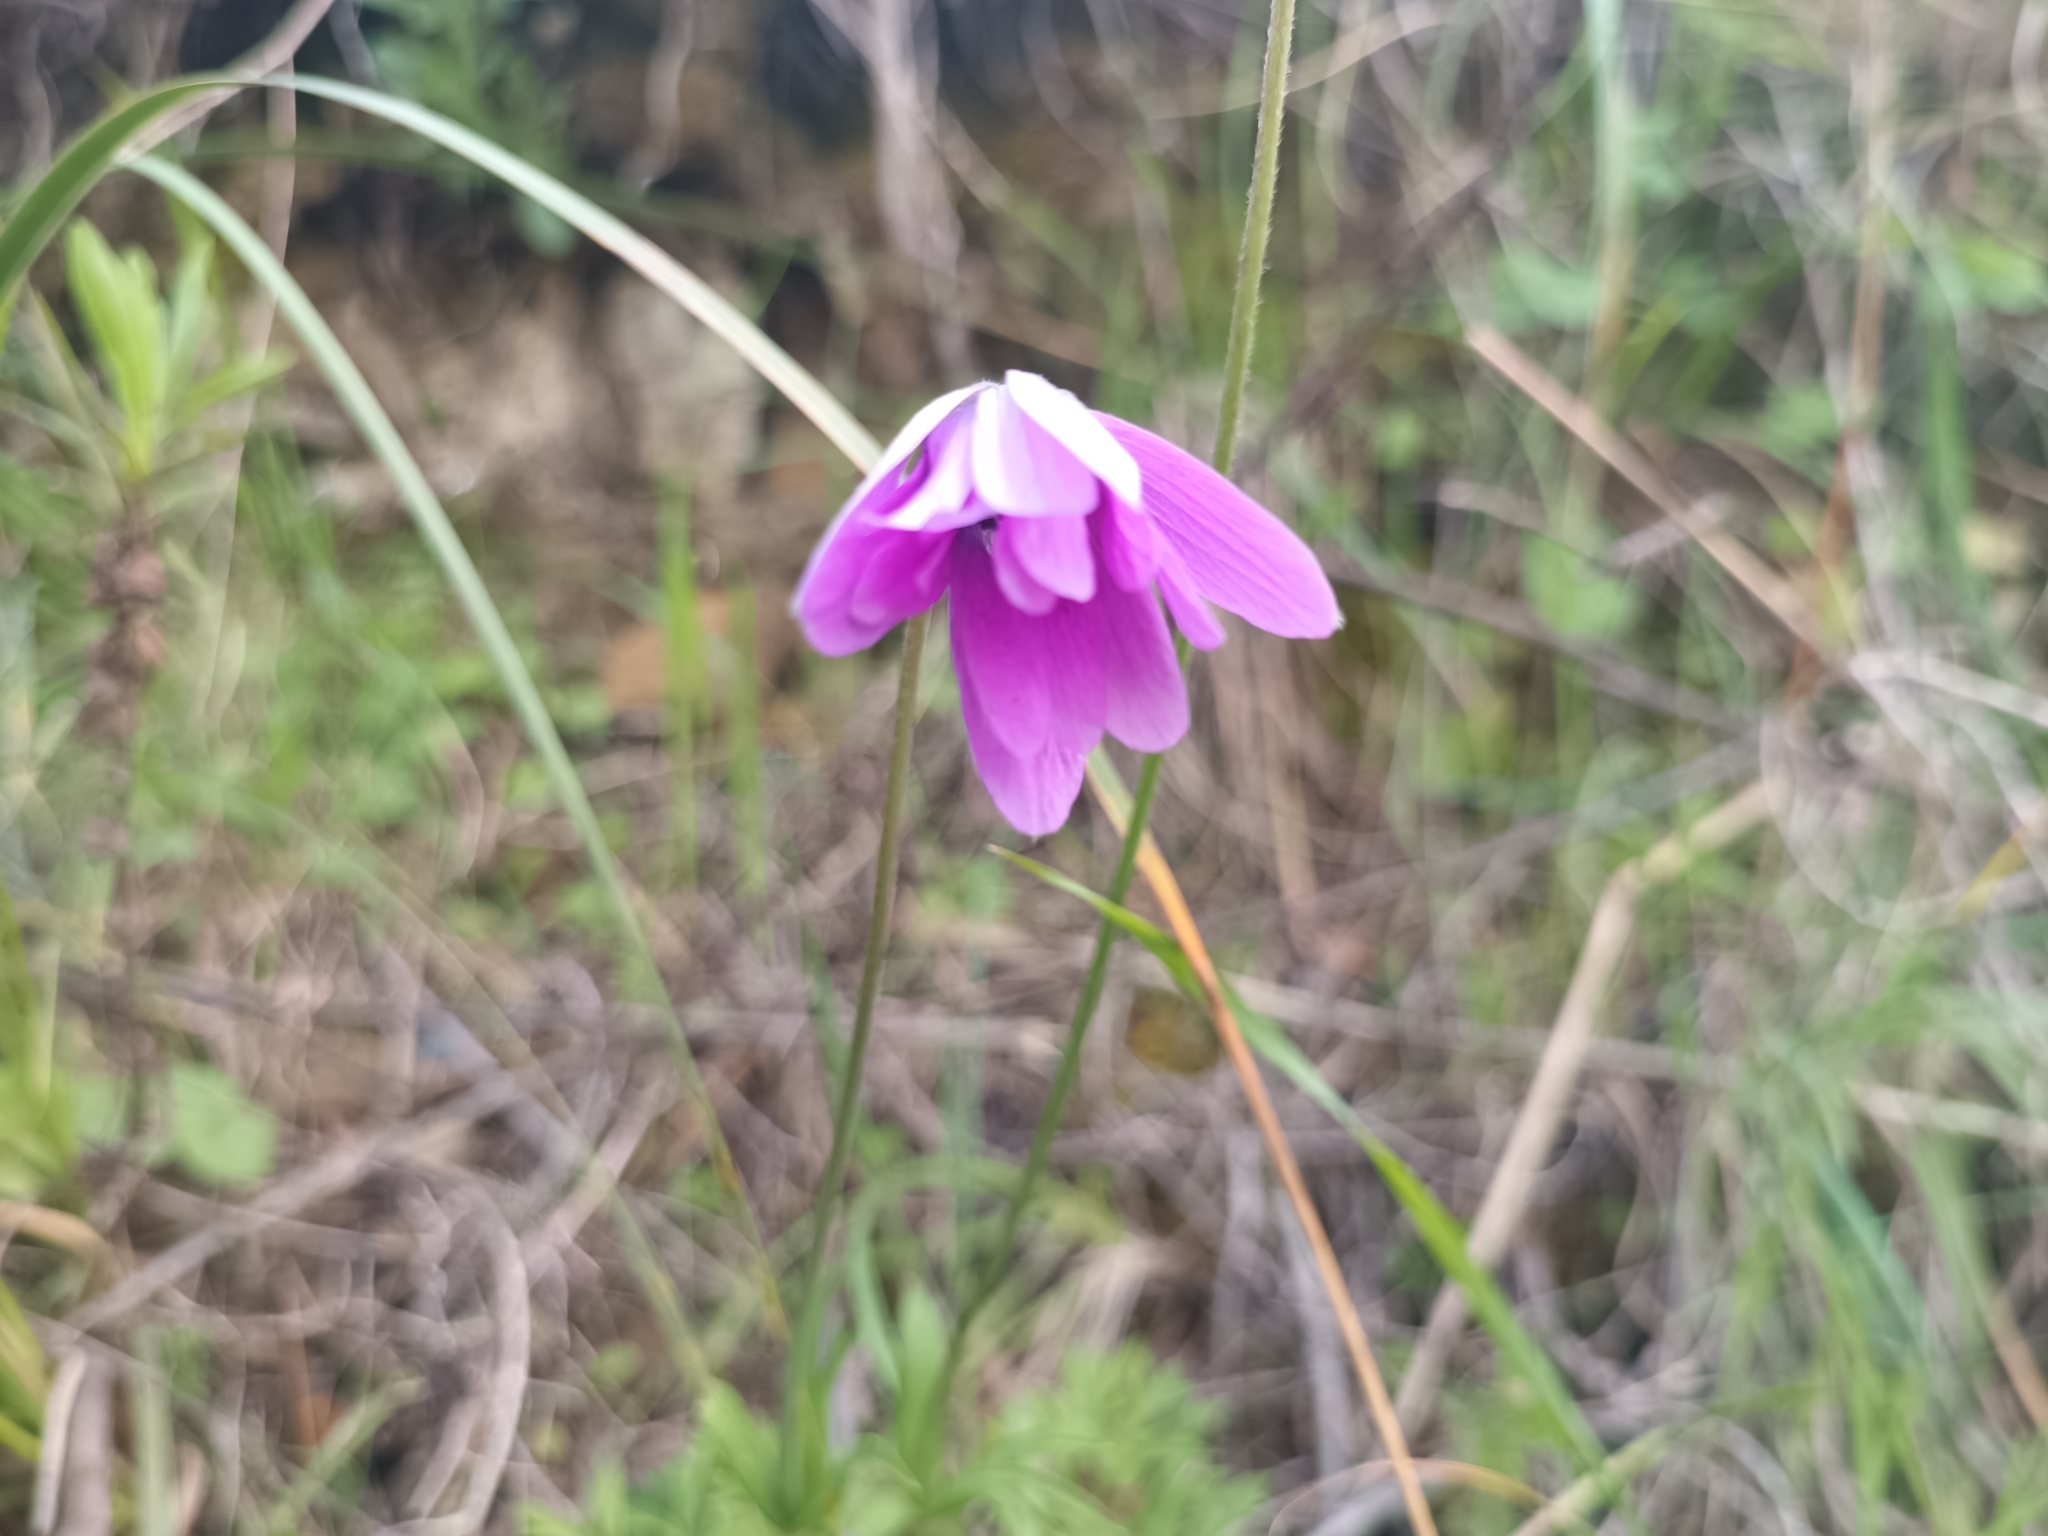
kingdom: Plantae
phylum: Tracheophyta
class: Magnoliopsida
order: Ranunculales
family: Ranunculaceae
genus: Anemone
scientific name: Anemone hortensis
